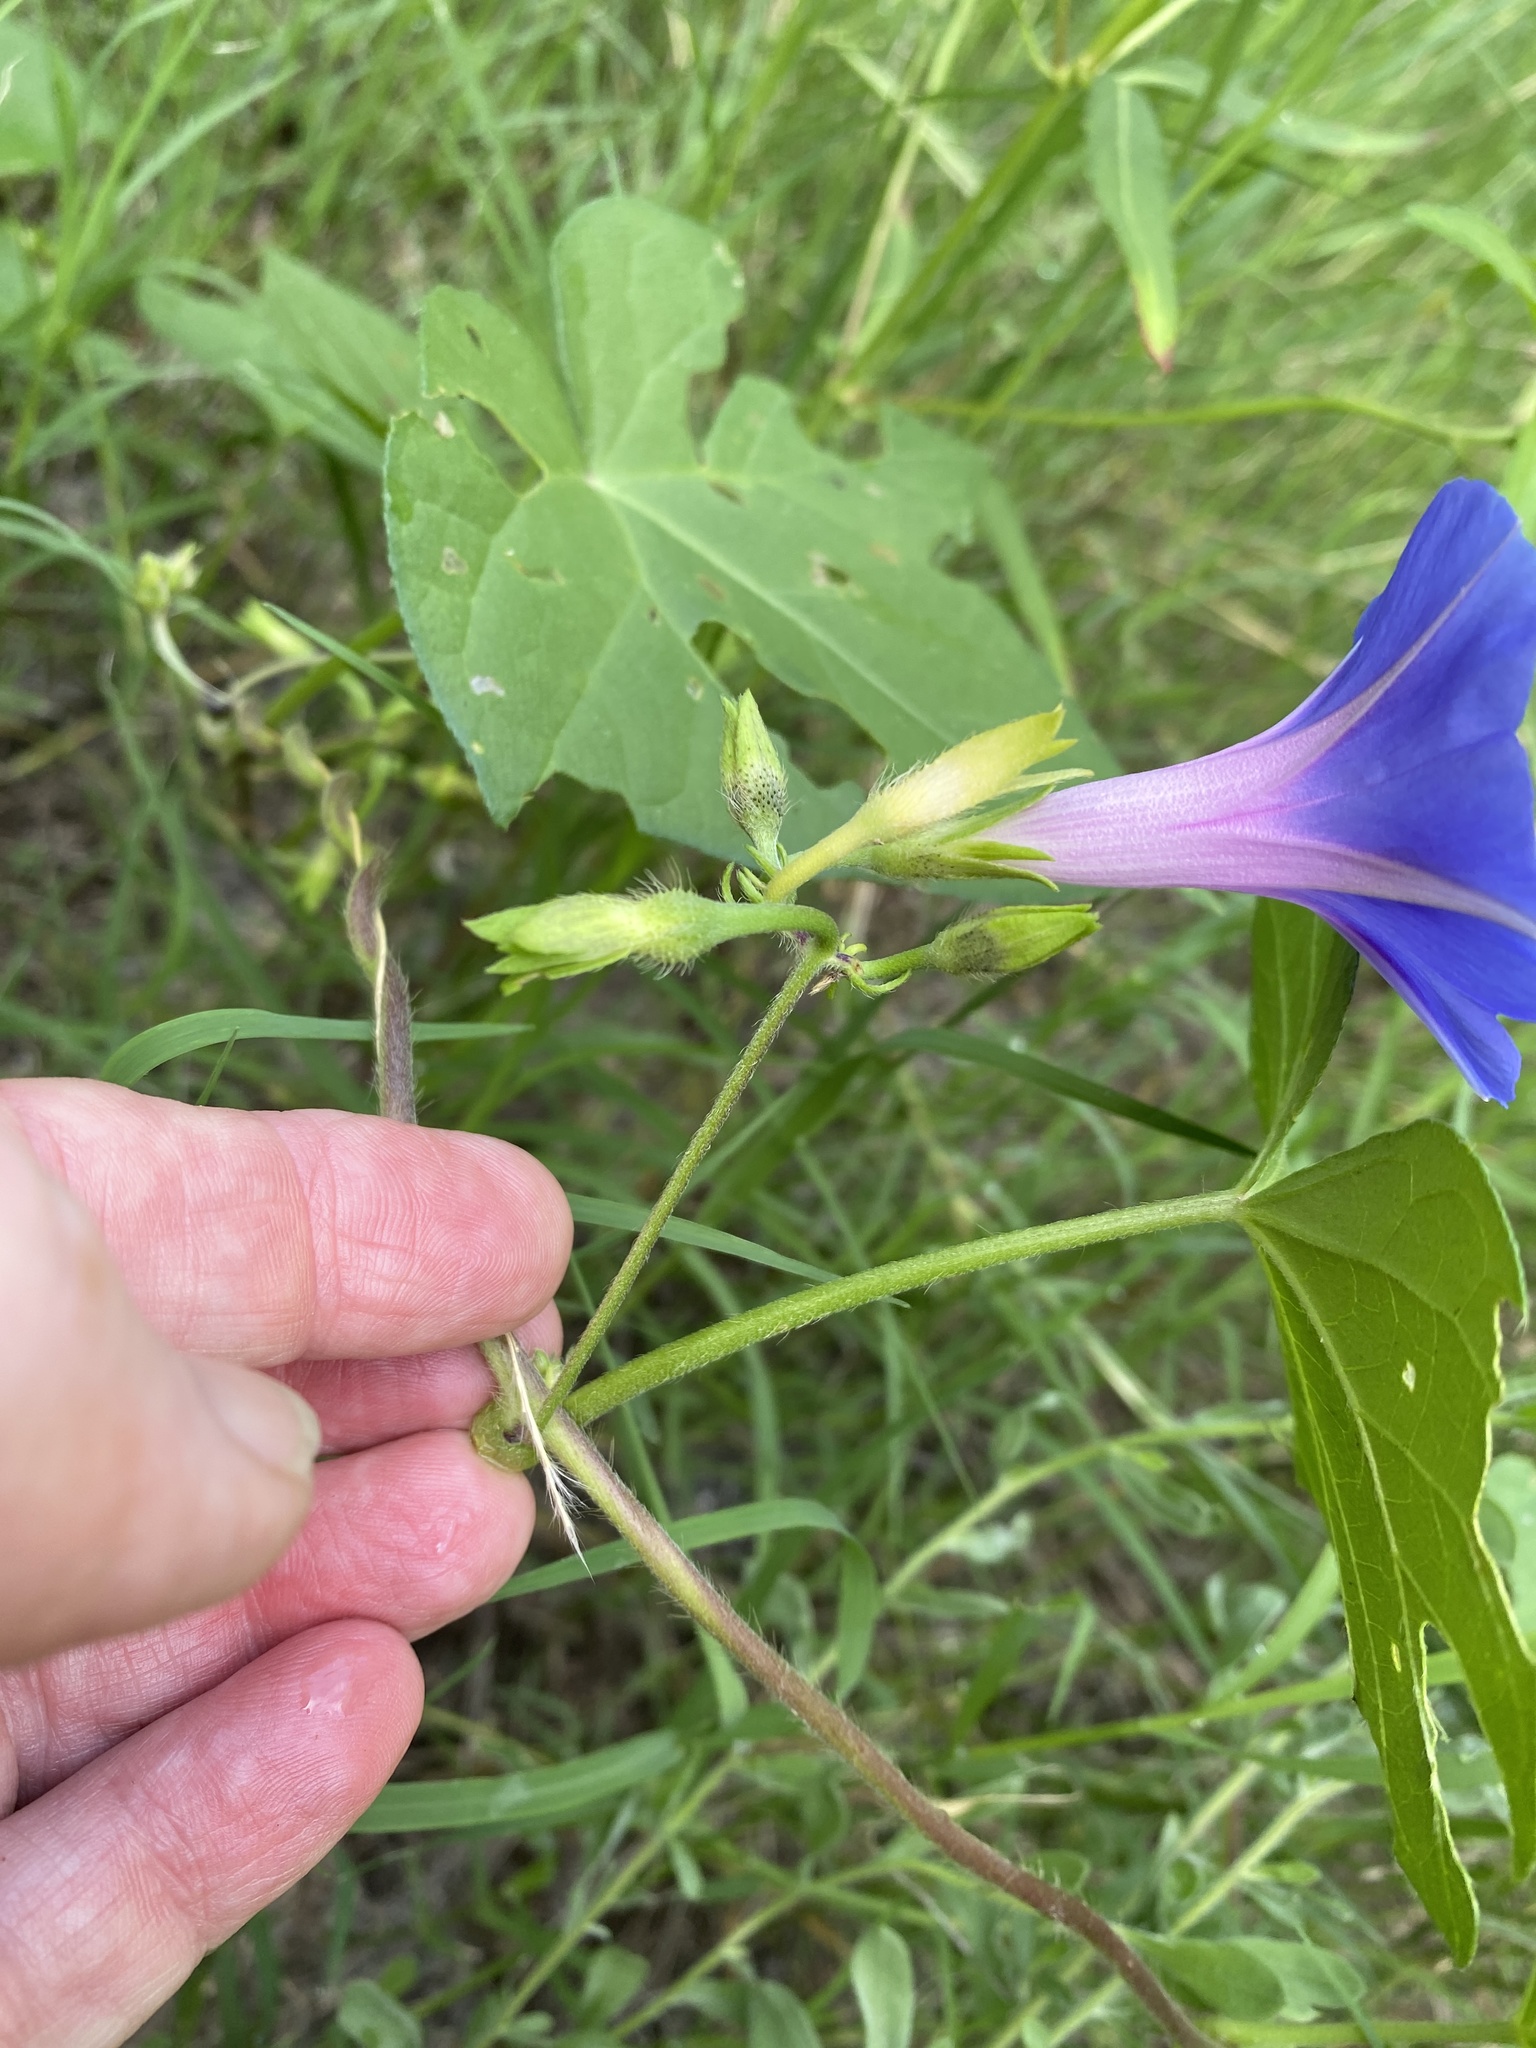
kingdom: Plantae
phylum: Tracheophyta
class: Magnoliopsida
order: Solanales
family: Convolvulaceae
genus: Ipomoea
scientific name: Ipomoea purpurea
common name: Common morning-glory
